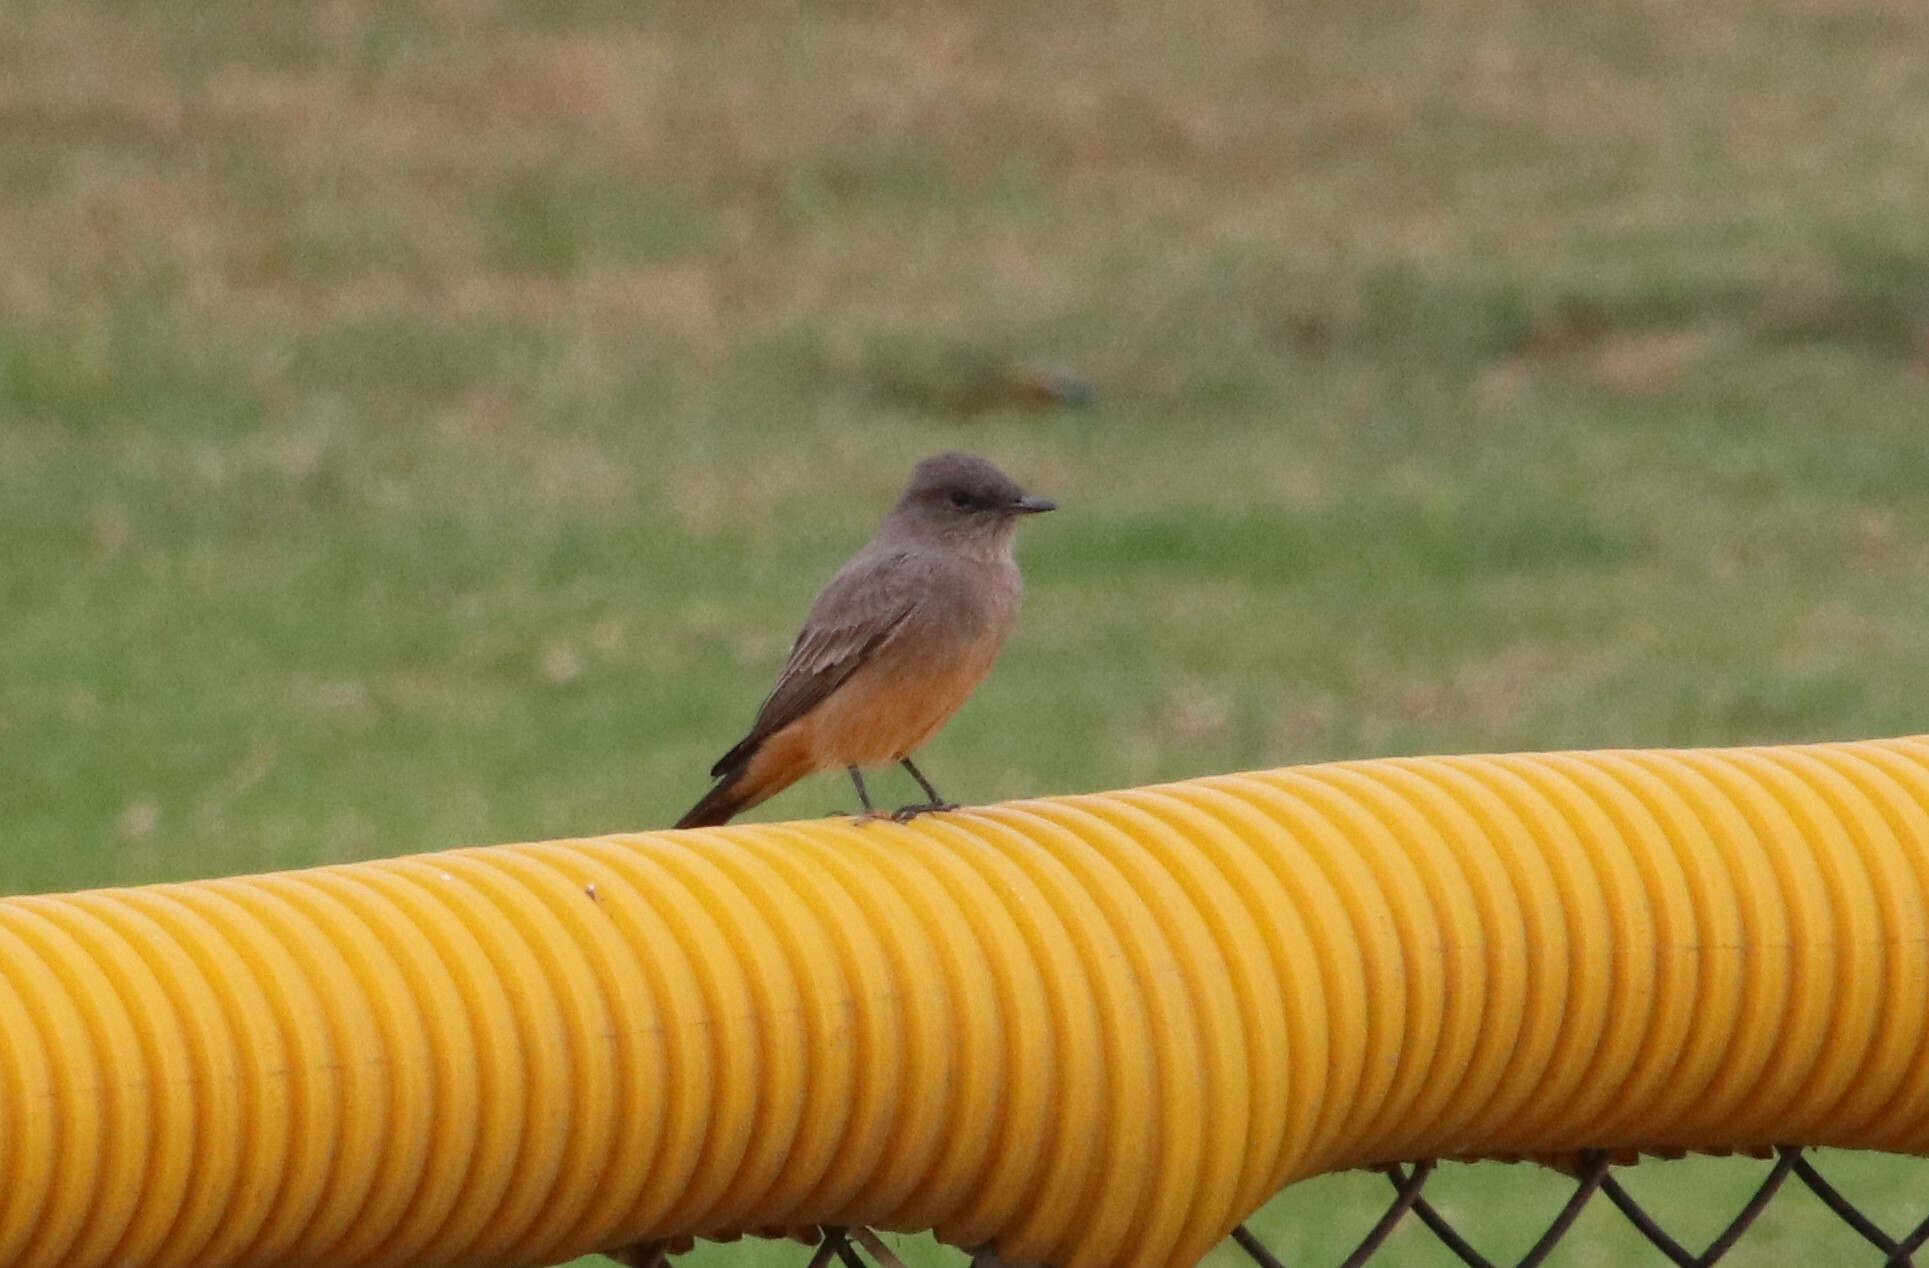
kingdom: Animalia
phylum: Chordata
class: Aves
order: Passeriformes
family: Tyrannidae
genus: Sayornis
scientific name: Sayornis saya
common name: Say's phoebe
